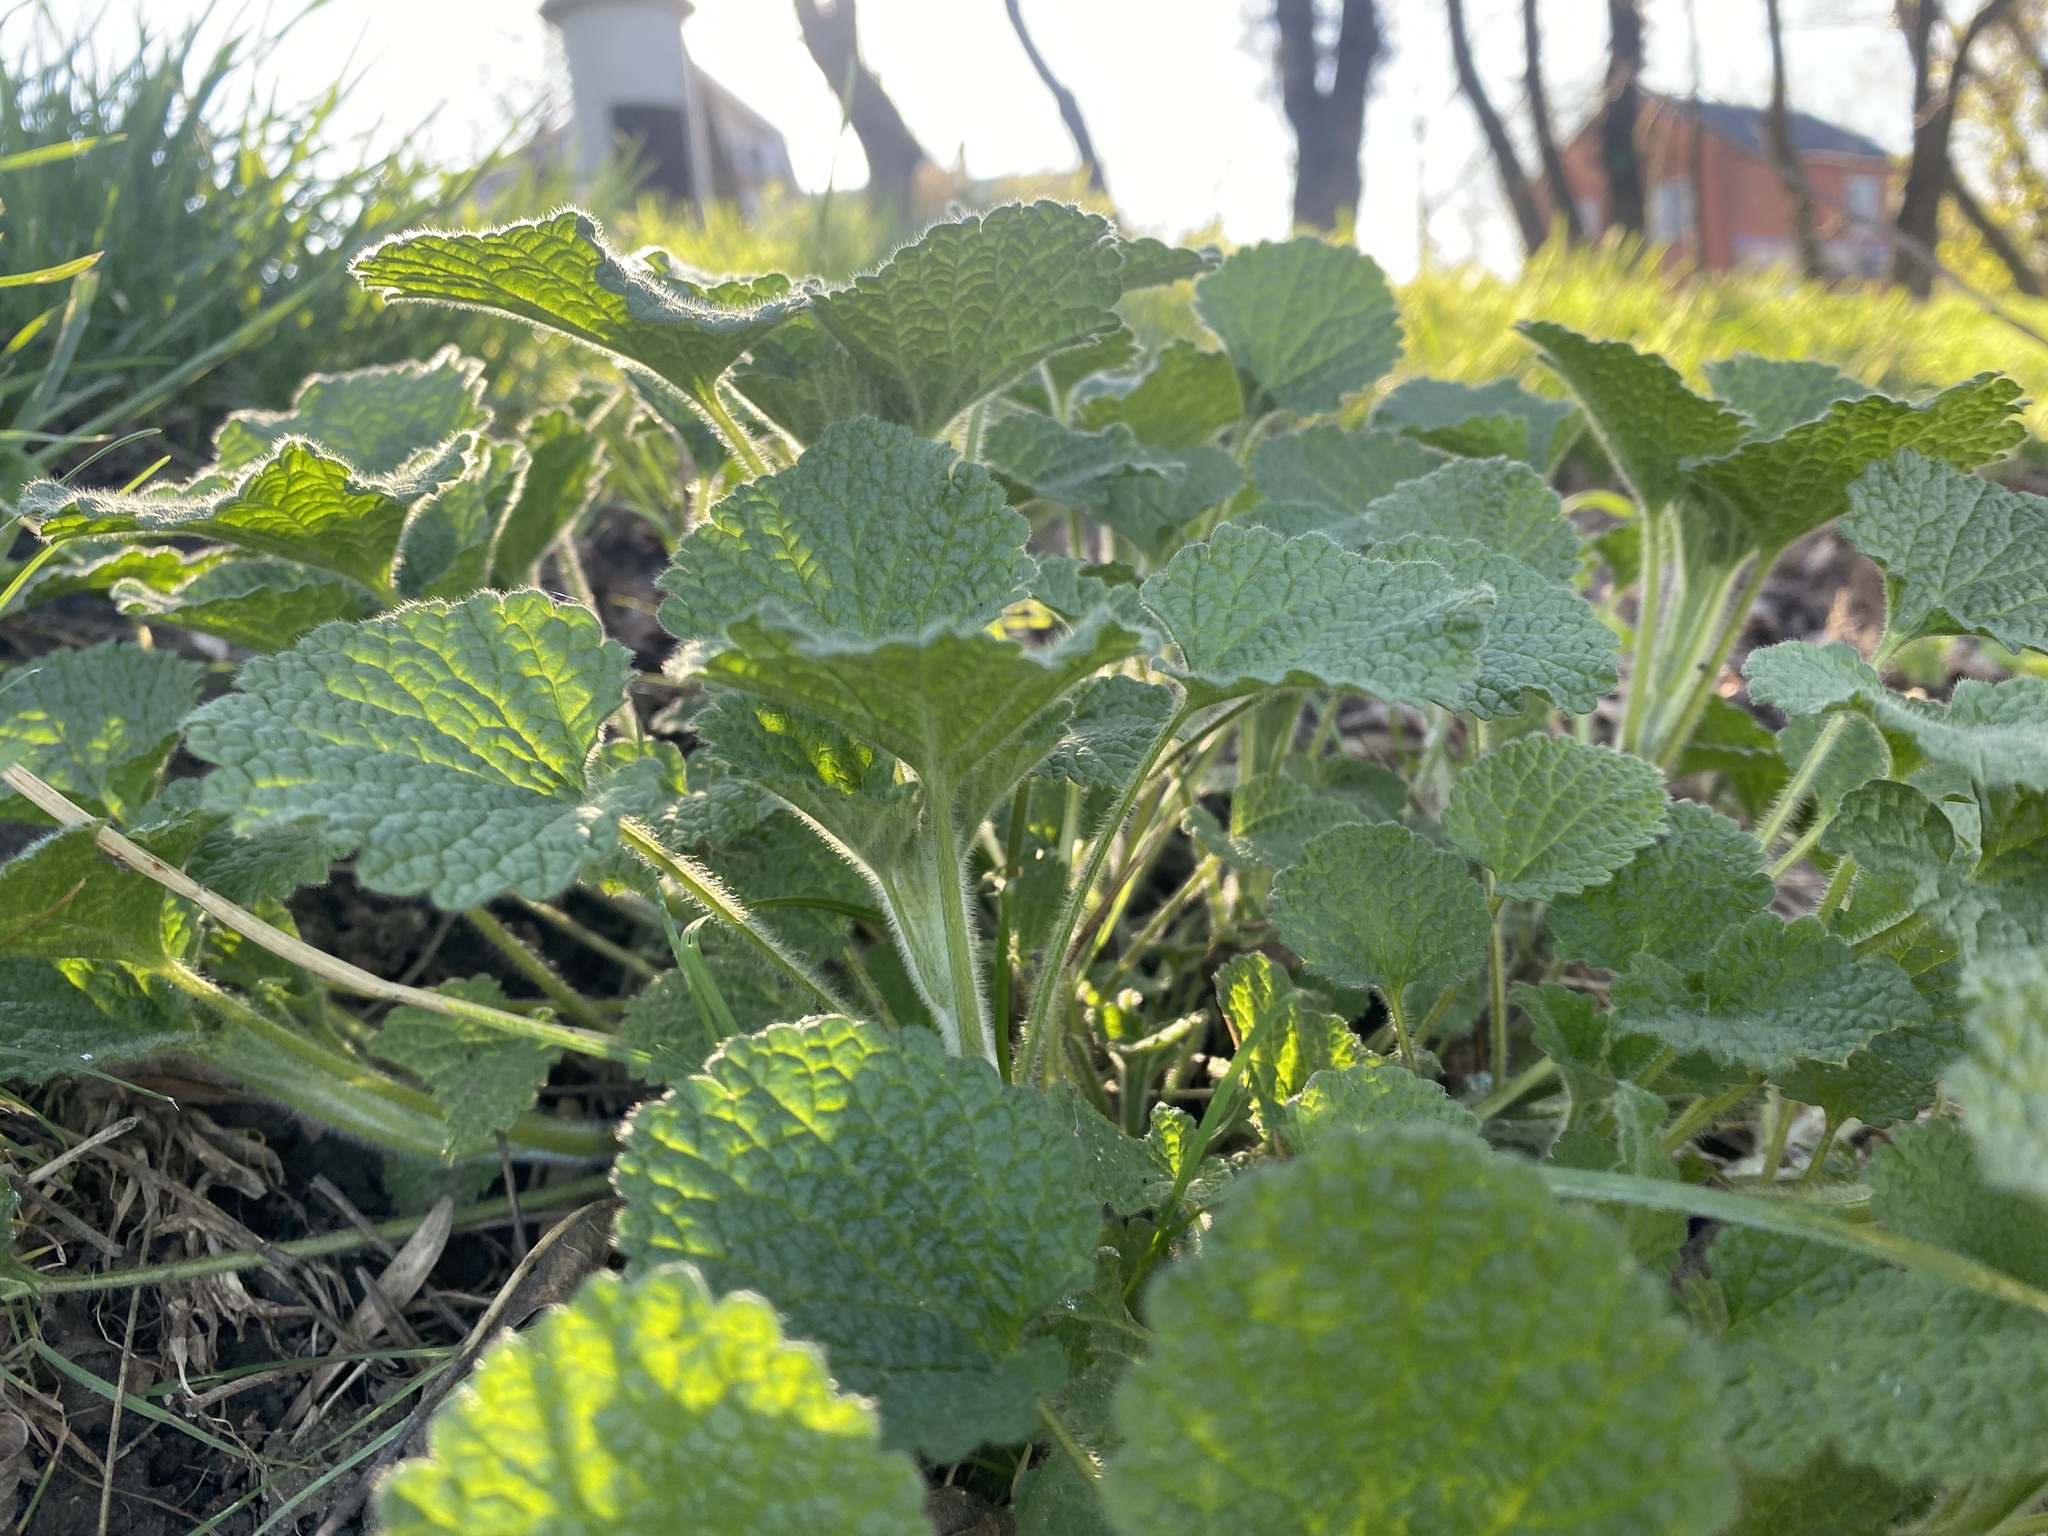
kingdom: Plantae
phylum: Tracheophyta
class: Magnoliopsida
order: Lamiales
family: Lamiaceae
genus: Ballota
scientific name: Ballota nigra
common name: Black horehound
